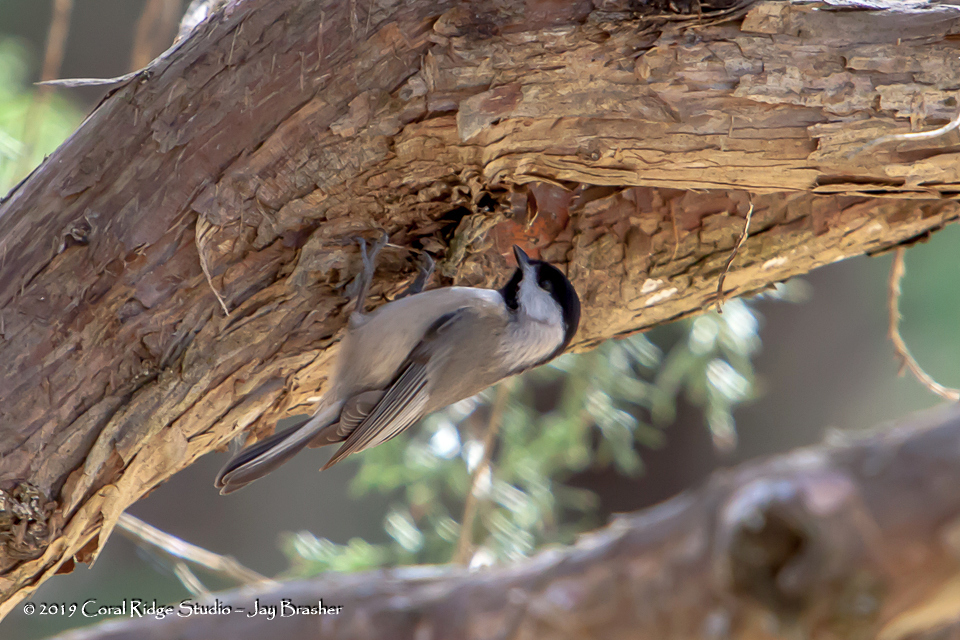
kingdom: Animalia
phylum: Chordata
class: Aves
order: Passeriformes
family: Paridae
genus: Poecile
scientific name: Poecile carolinensis
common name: Carolina chickadee
